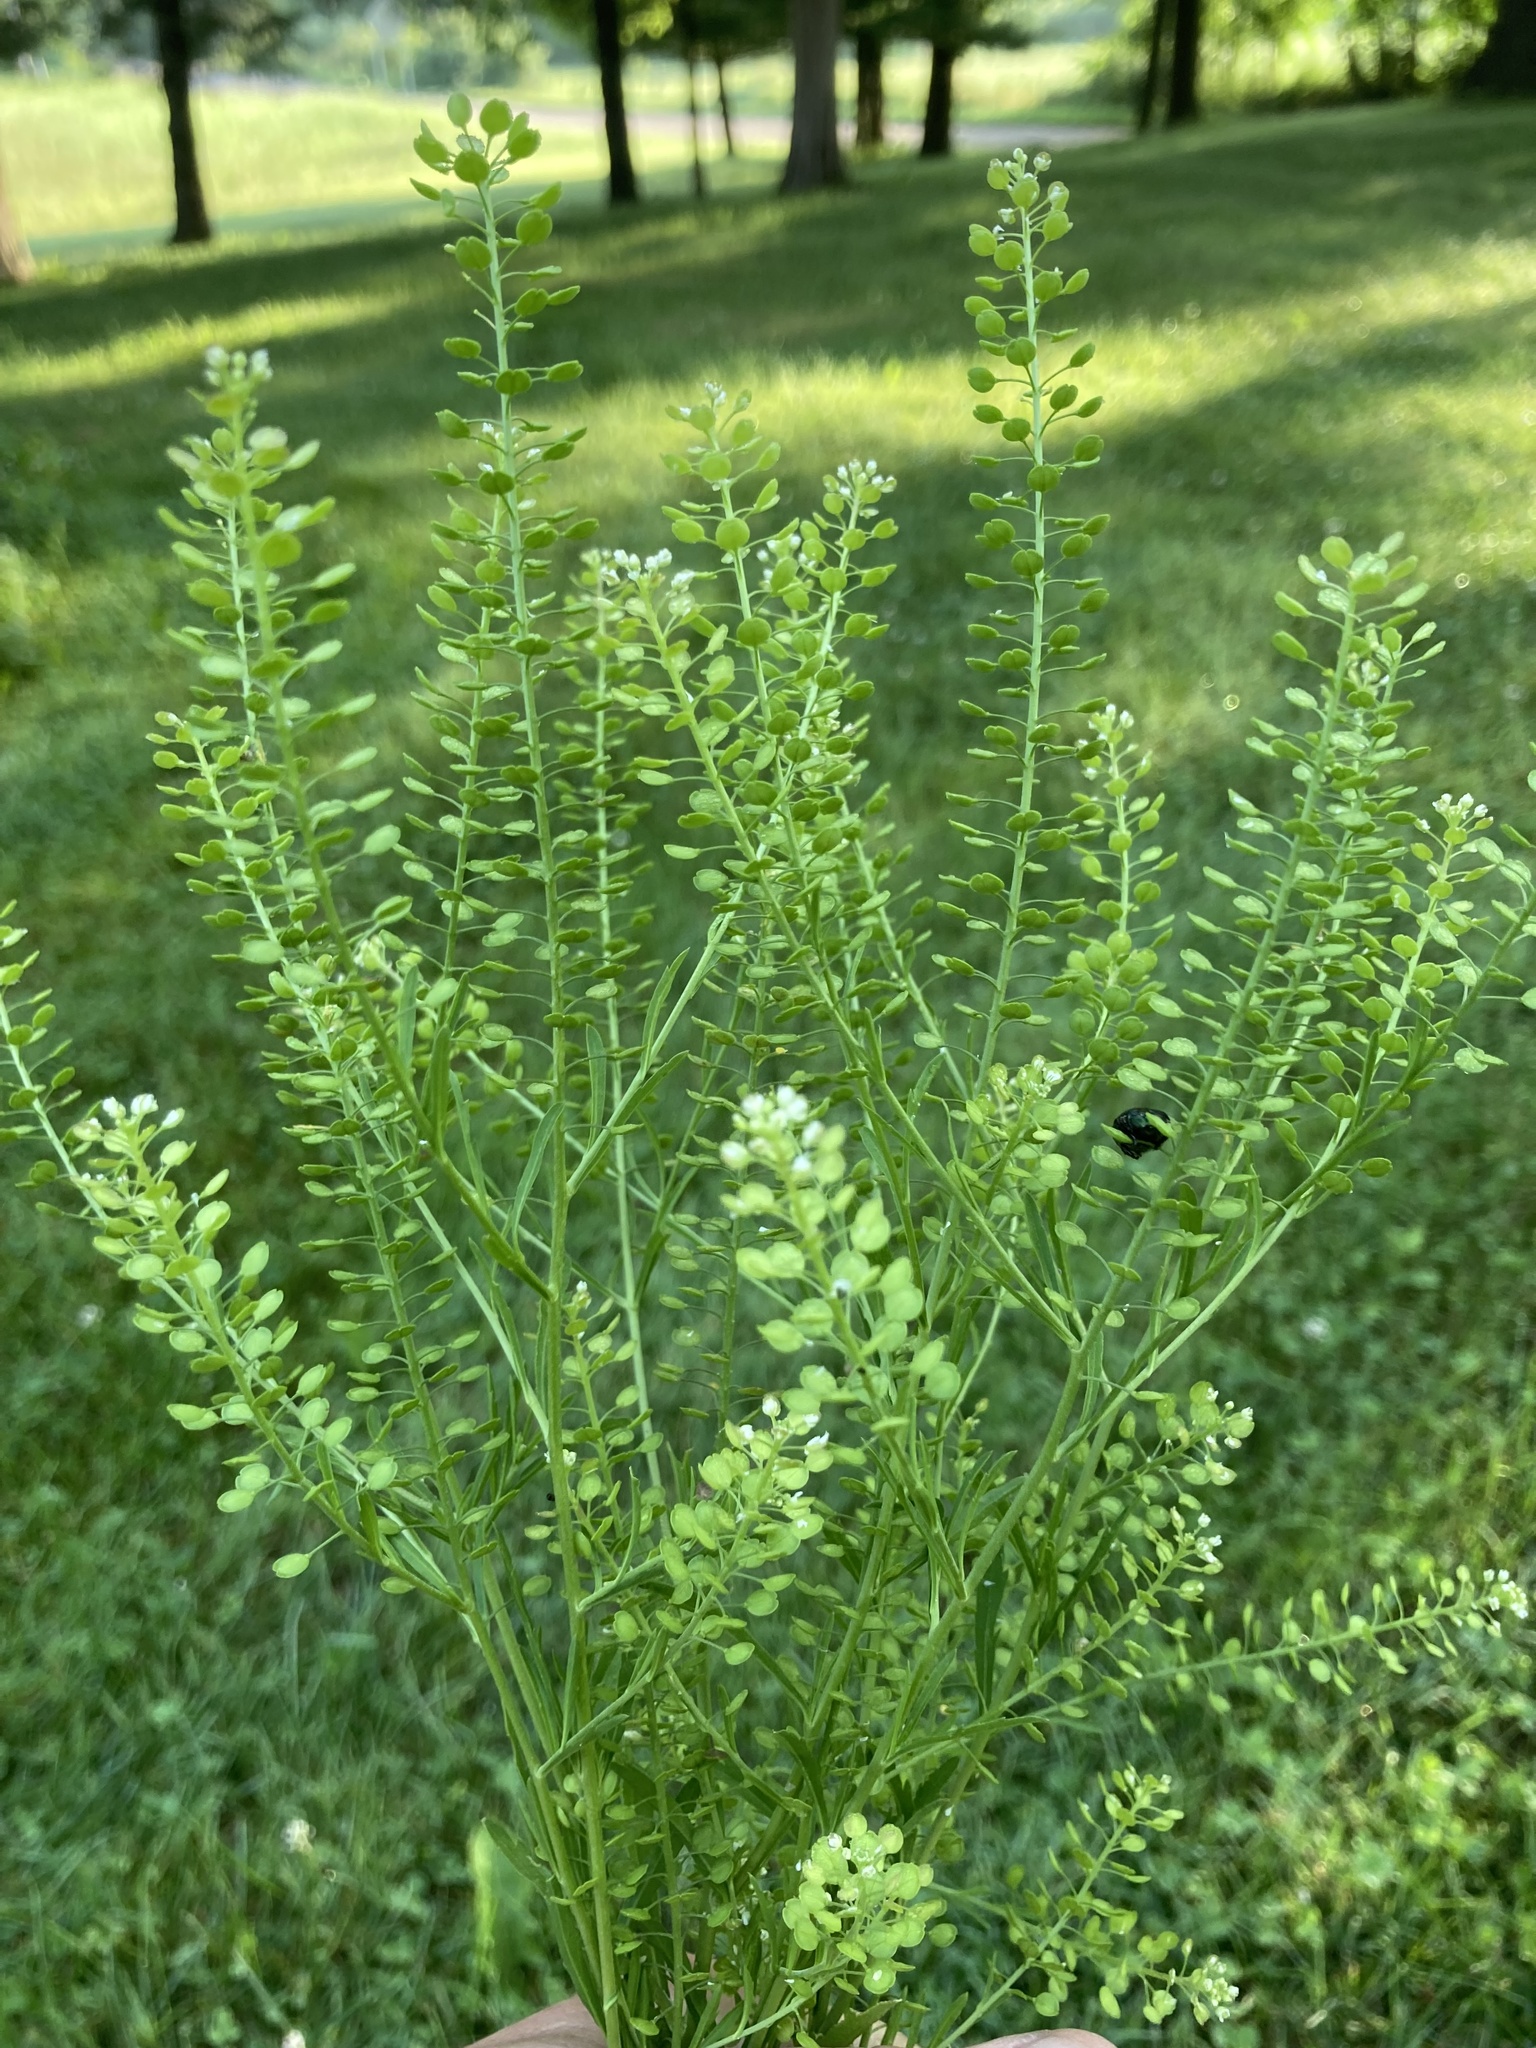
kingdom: Plantae
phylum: Tracheophyta
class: Magnoliopsida
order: Brassicales
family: Brassicaceae
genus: Lepidium
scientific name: Lepidium virginicum
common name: Least pepperwort
